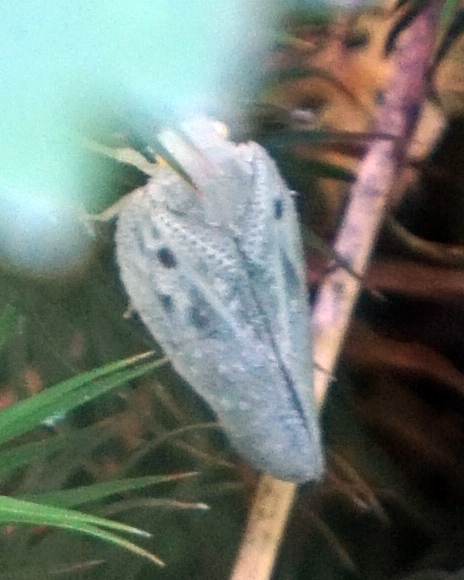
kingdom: Animalia
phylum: Arthropoda
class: Insecta
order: Hemiptera
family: Flatidae
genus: Metcalfa
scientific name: Metcalfa pruinosa
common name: Citrus flatid planthopper
